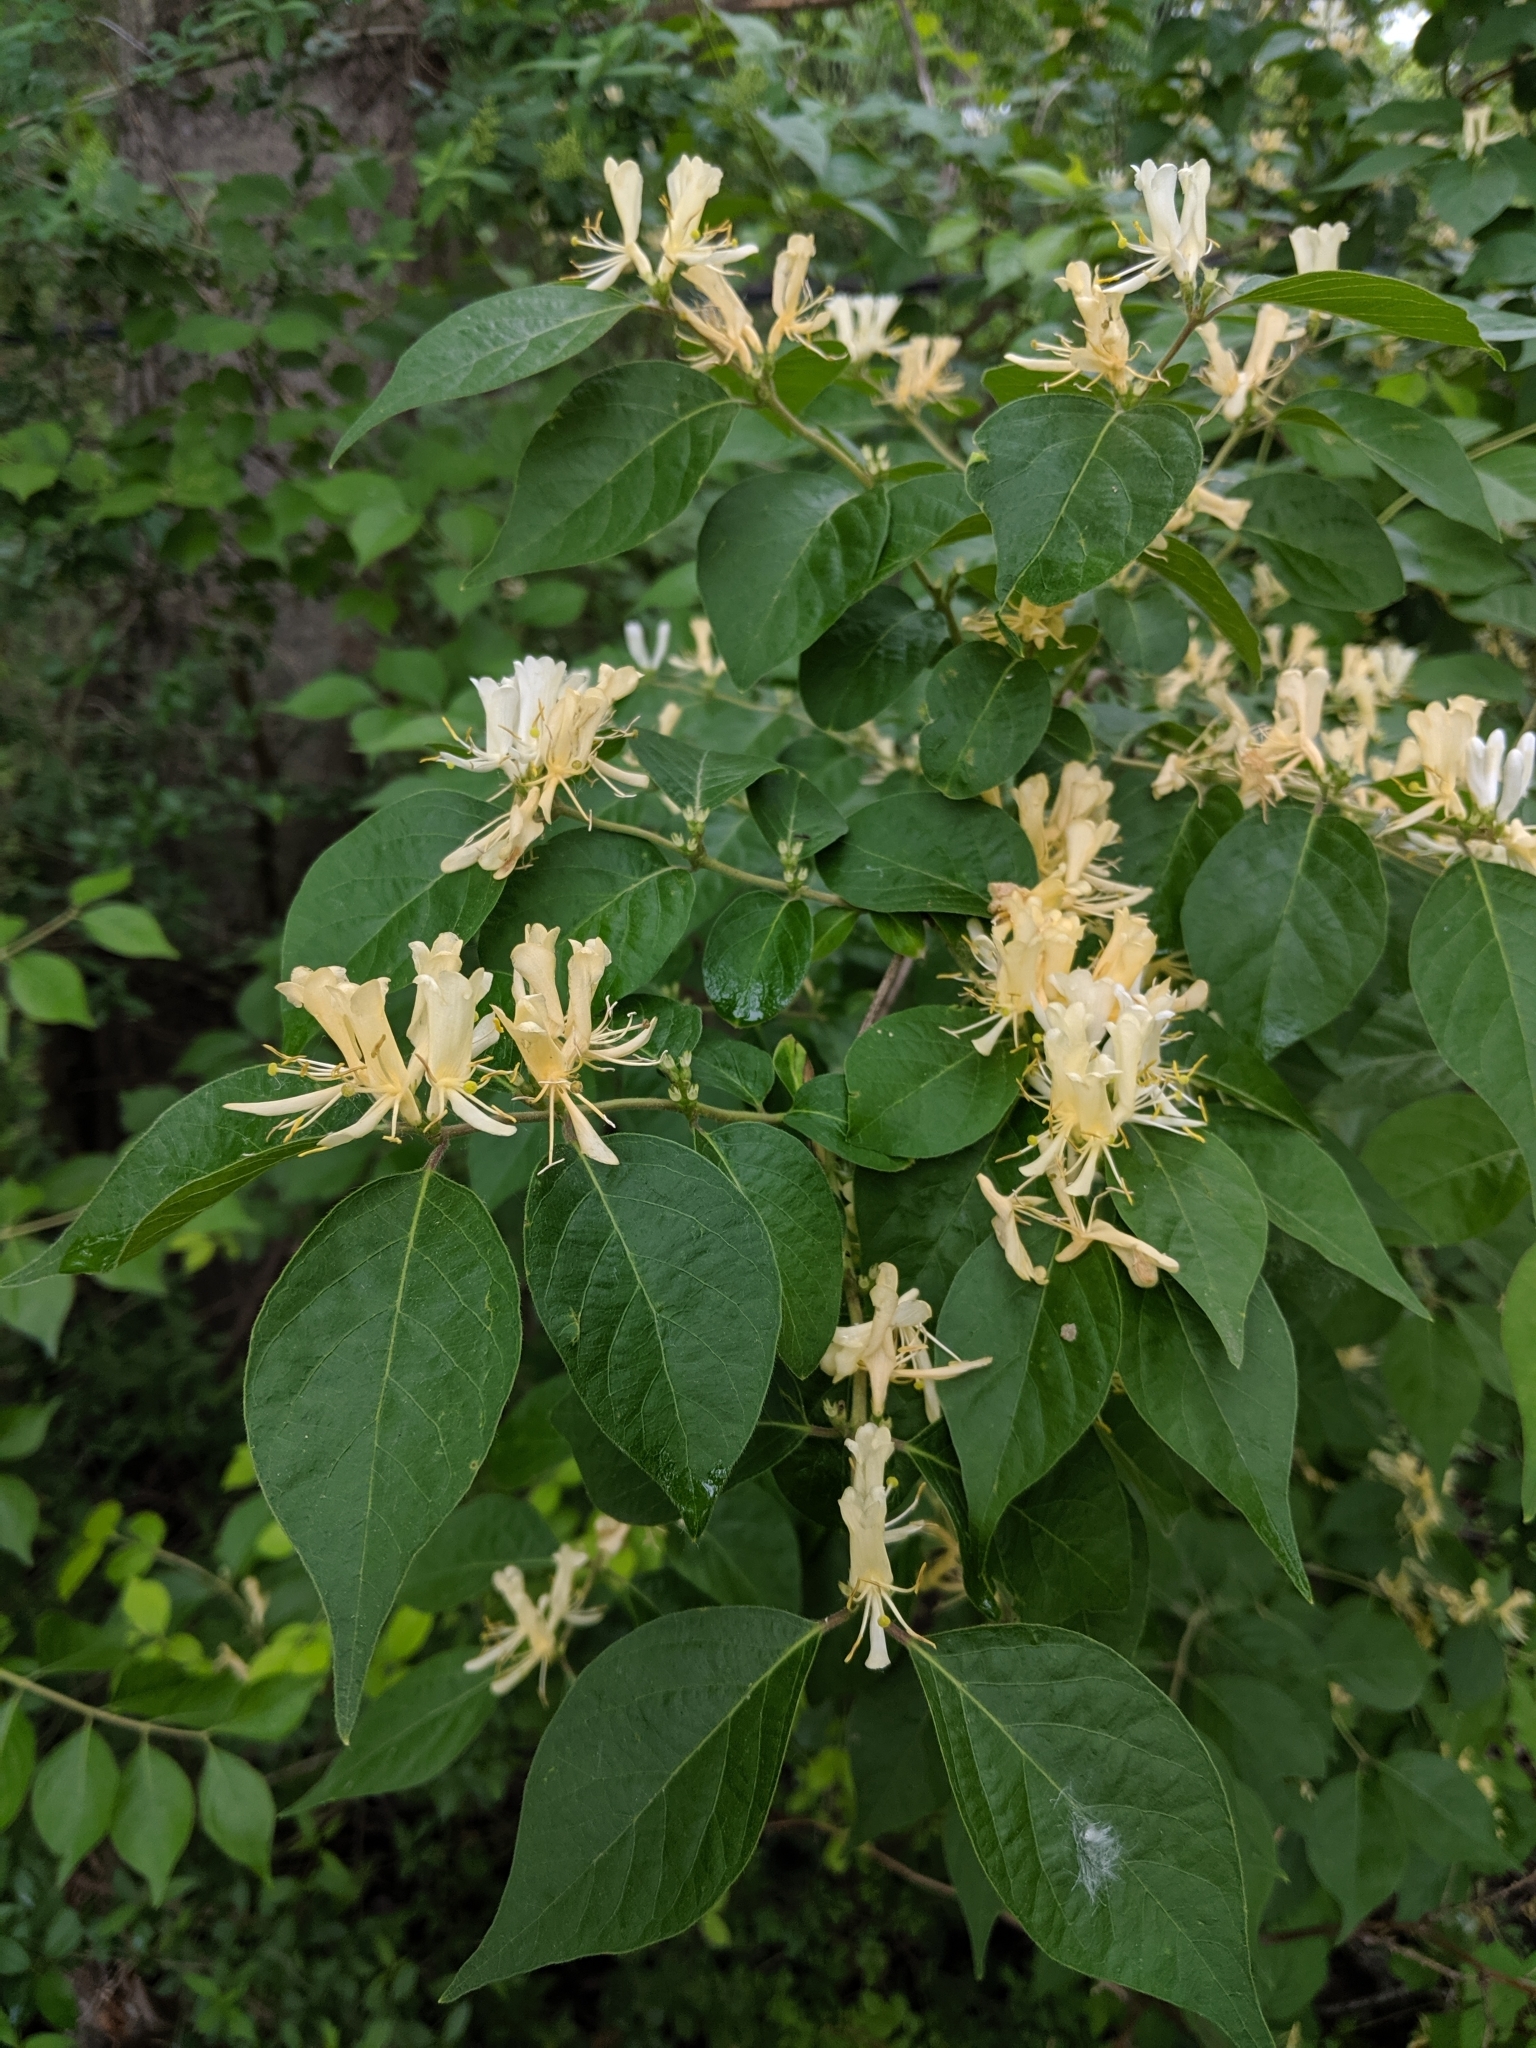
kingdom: Plantae
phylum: Tracheophyta
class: Magnoliopsida
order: Dipsacales
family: Caprifoliaceae
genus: Lonicera
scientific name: Lonicera maackii
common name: Amur honeysuckle
